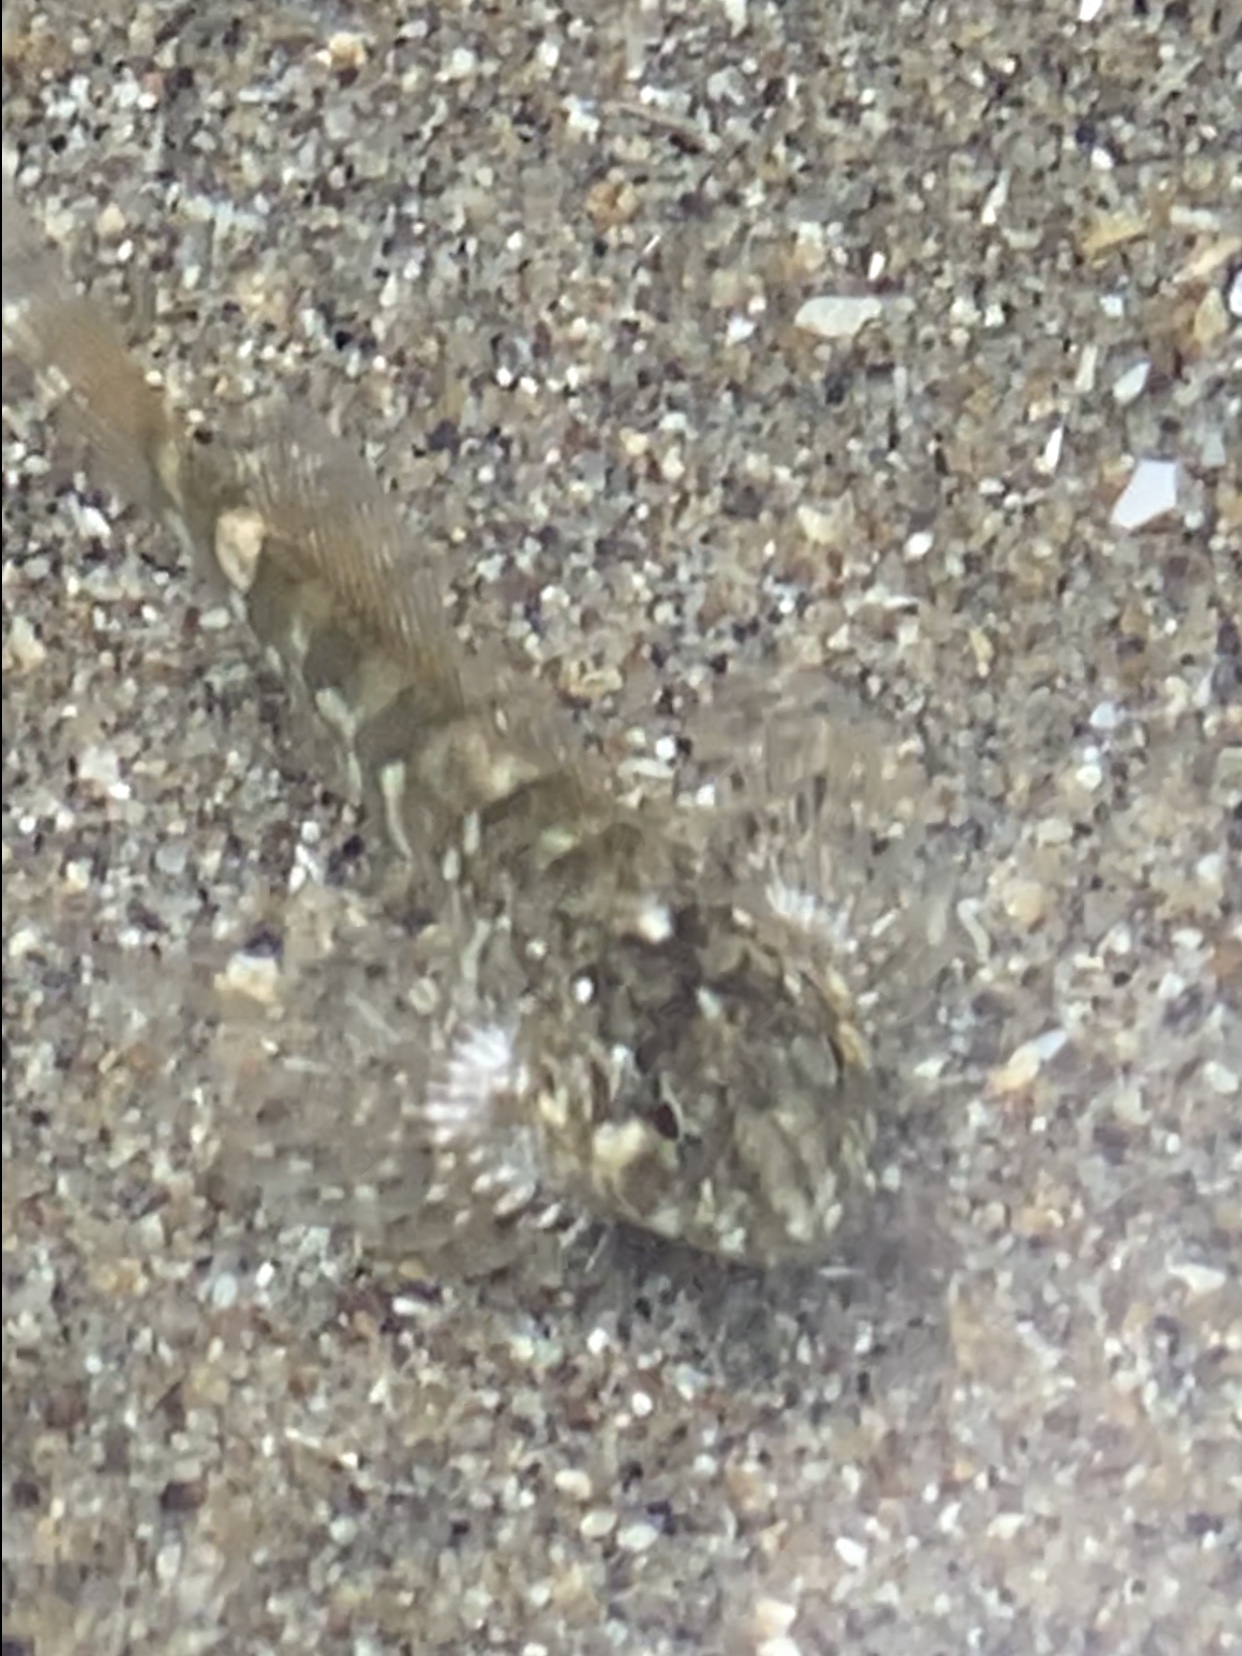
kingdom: Animalia
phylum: Chordata
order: Scorpaeniformes
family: Cottidae
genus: Oligocottus
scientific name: Oligocottus maculosus
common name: Tidepool sculpin
